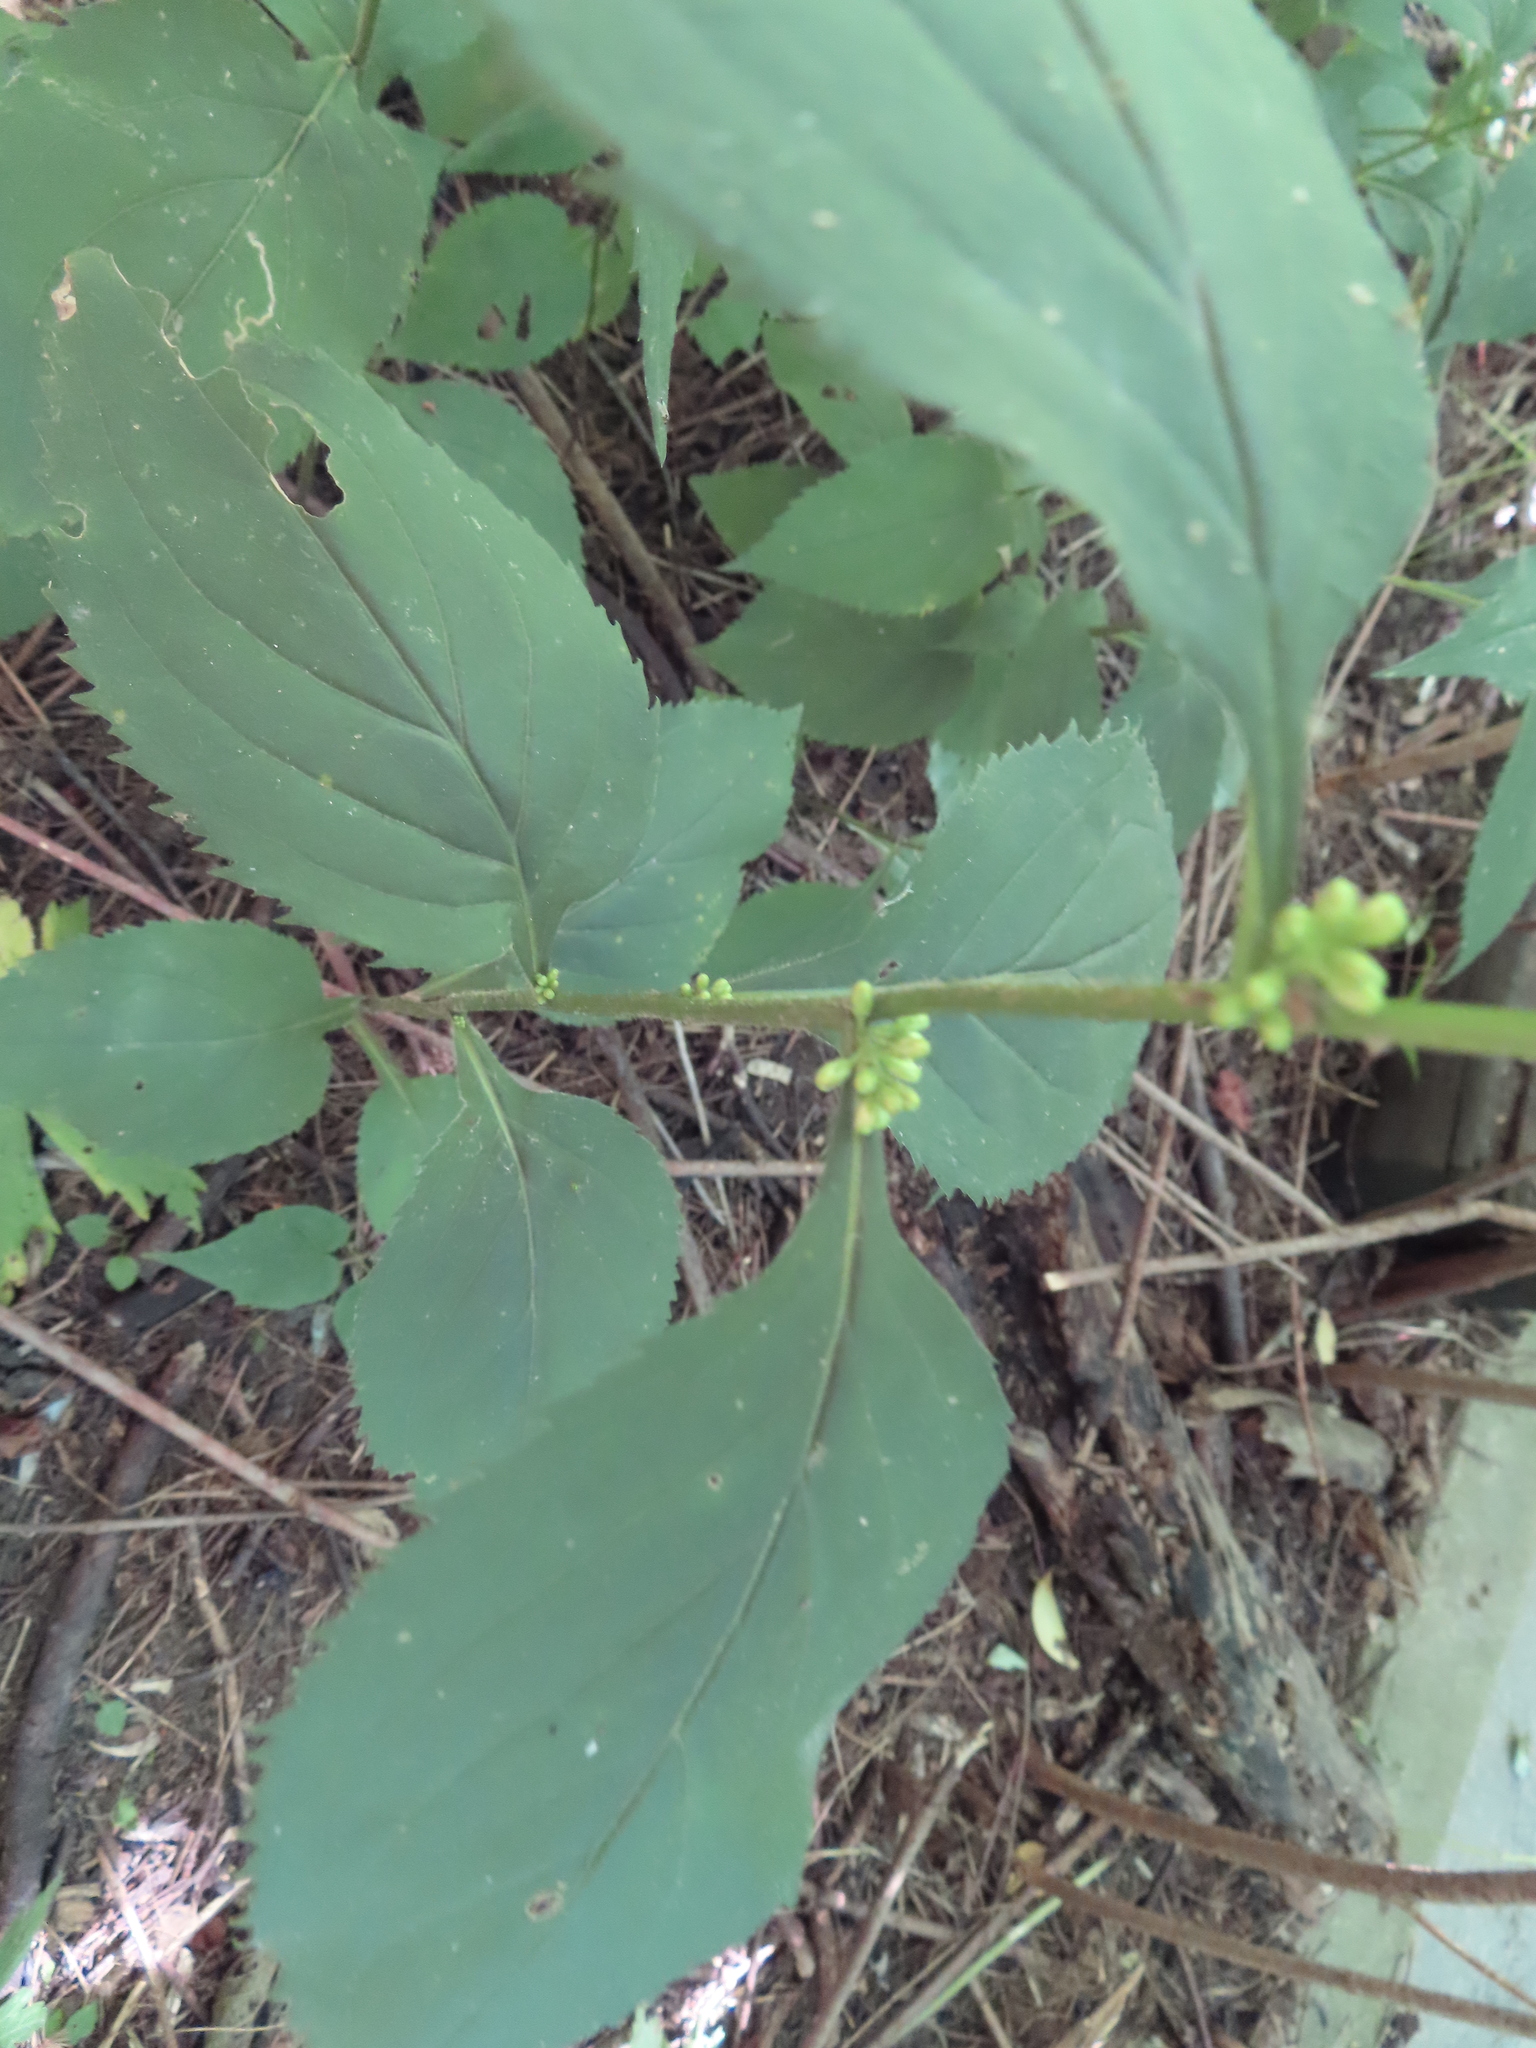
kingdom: Plantae
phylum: Tracheophyta
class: Magnoliopsida
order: Asterales
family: Asteraceae
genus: Solidago
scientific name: Solidago flexicaulis
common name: Zig-zag goldenrod
